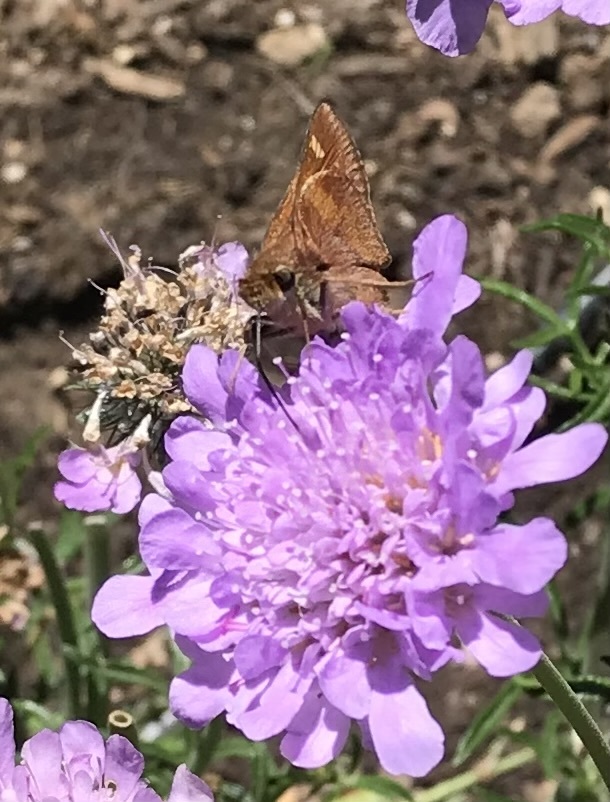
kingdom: Animalia
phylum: Arthropoda
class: Insecta
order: Lepidoptera
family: Hesperiidae
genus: Lon
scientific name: Lon melane
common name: Umber skipper
